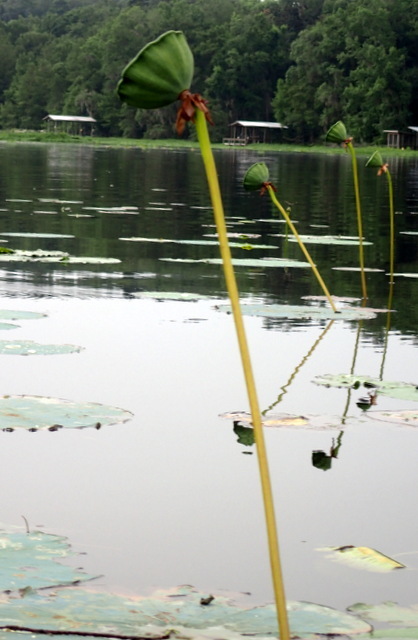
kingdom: Plantae
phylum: Tracheophyta
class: Magnoliopsida
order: Proteales
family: Nelumbonaceae
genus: Nelumbo
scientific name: Nelumbo lutea
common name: American lotus
